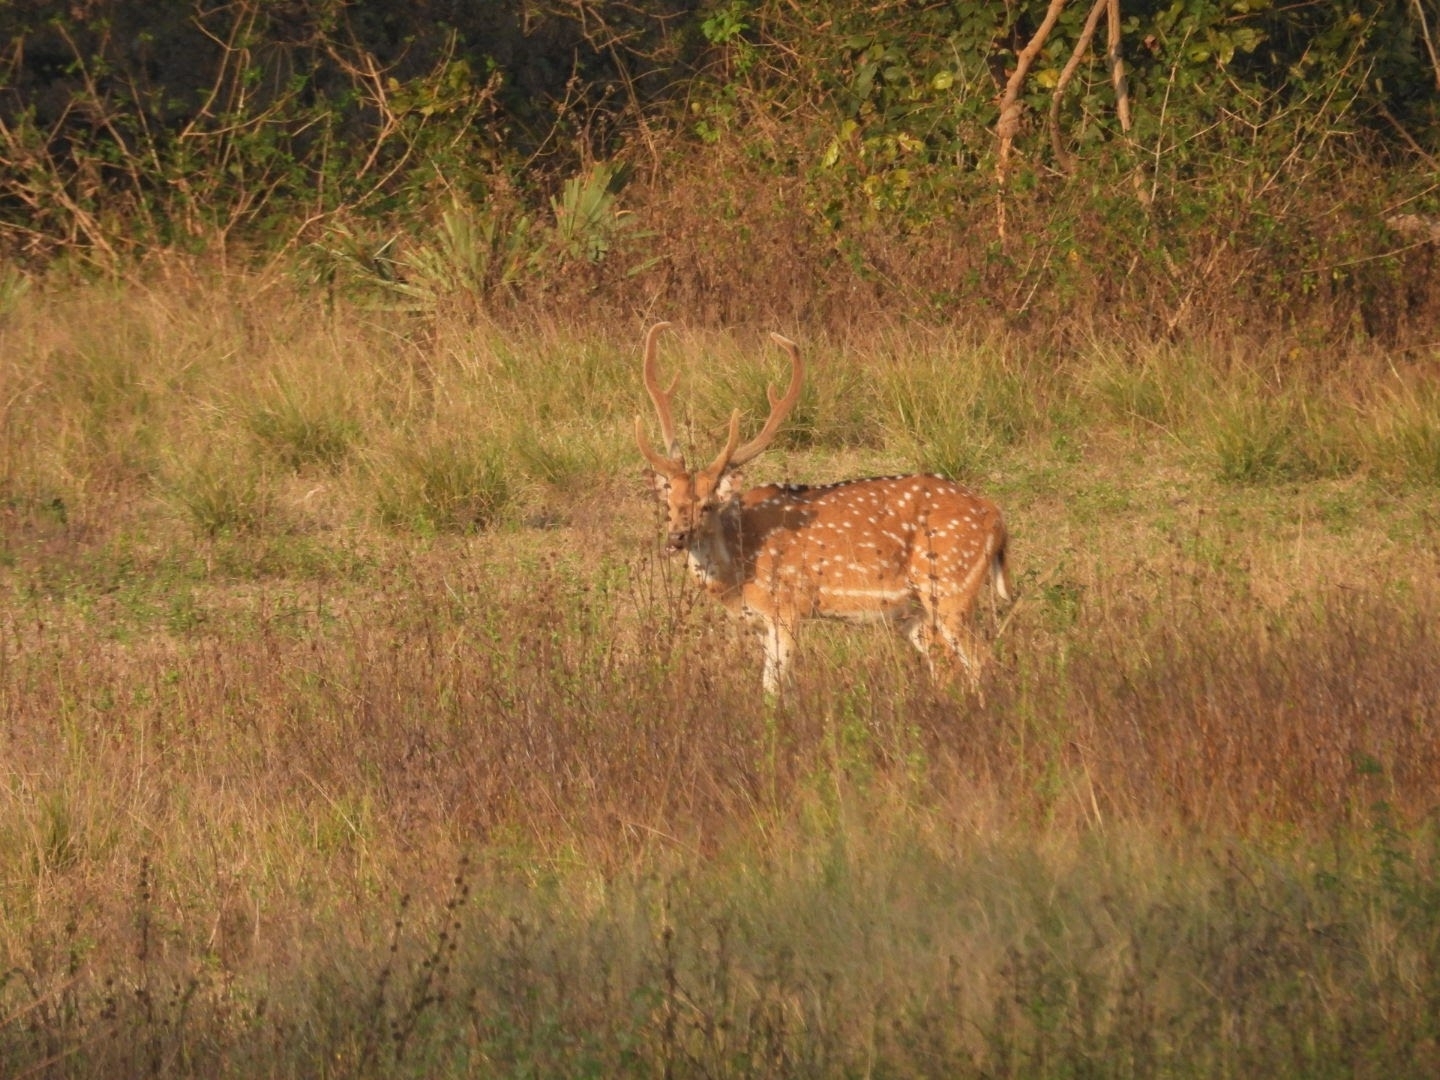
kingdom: Animalia
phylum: Chordata
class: Mammalia
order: Artiodactyla
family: Cervidae
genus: Axis
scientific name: Axis axis
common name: Chital
